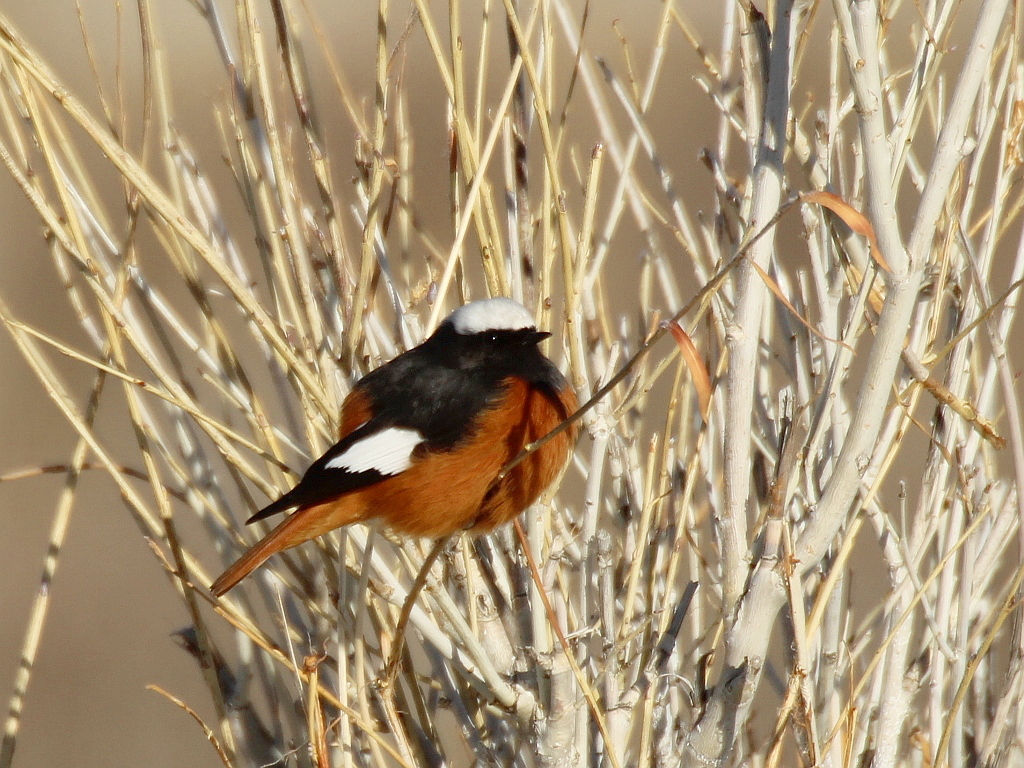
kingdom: Animalia
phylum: Chordata
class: Aves
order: Passeriformes
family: Muscicapidae
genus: Phoenicurus
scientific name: Phoenicurus erythrogastrus
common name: Güldenstädt's redstart
